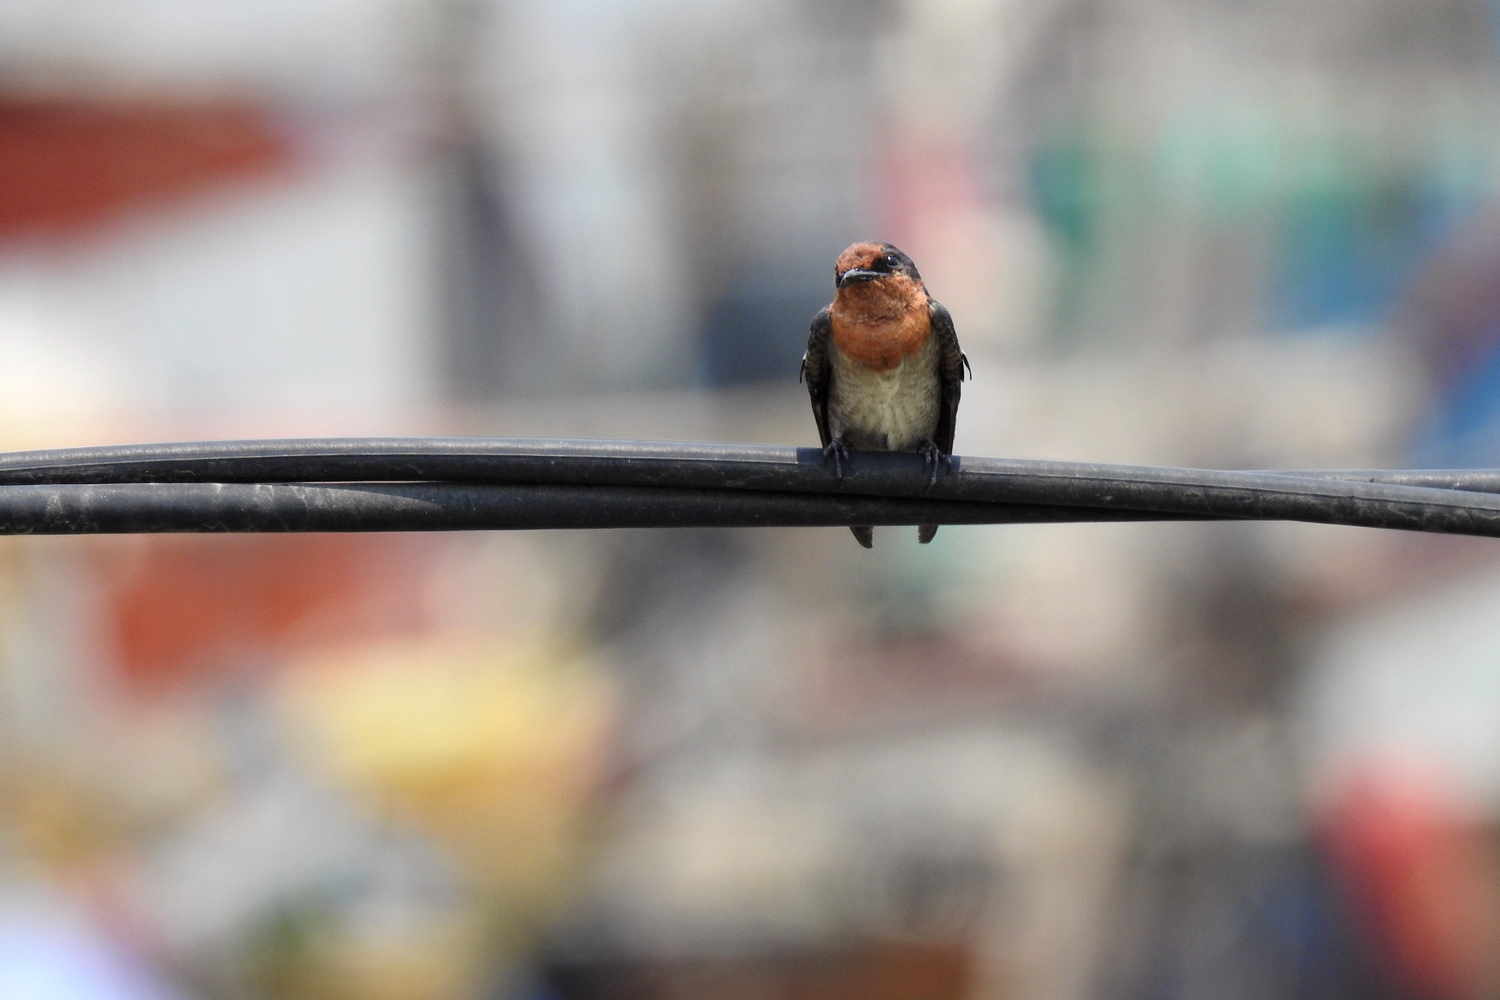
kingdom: Animalia
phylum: Chordata
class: Aves
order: Passeriformes
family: Hirundinidae
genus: Hirundo
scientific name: Hirundo tahitica
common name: Pacific swallow
